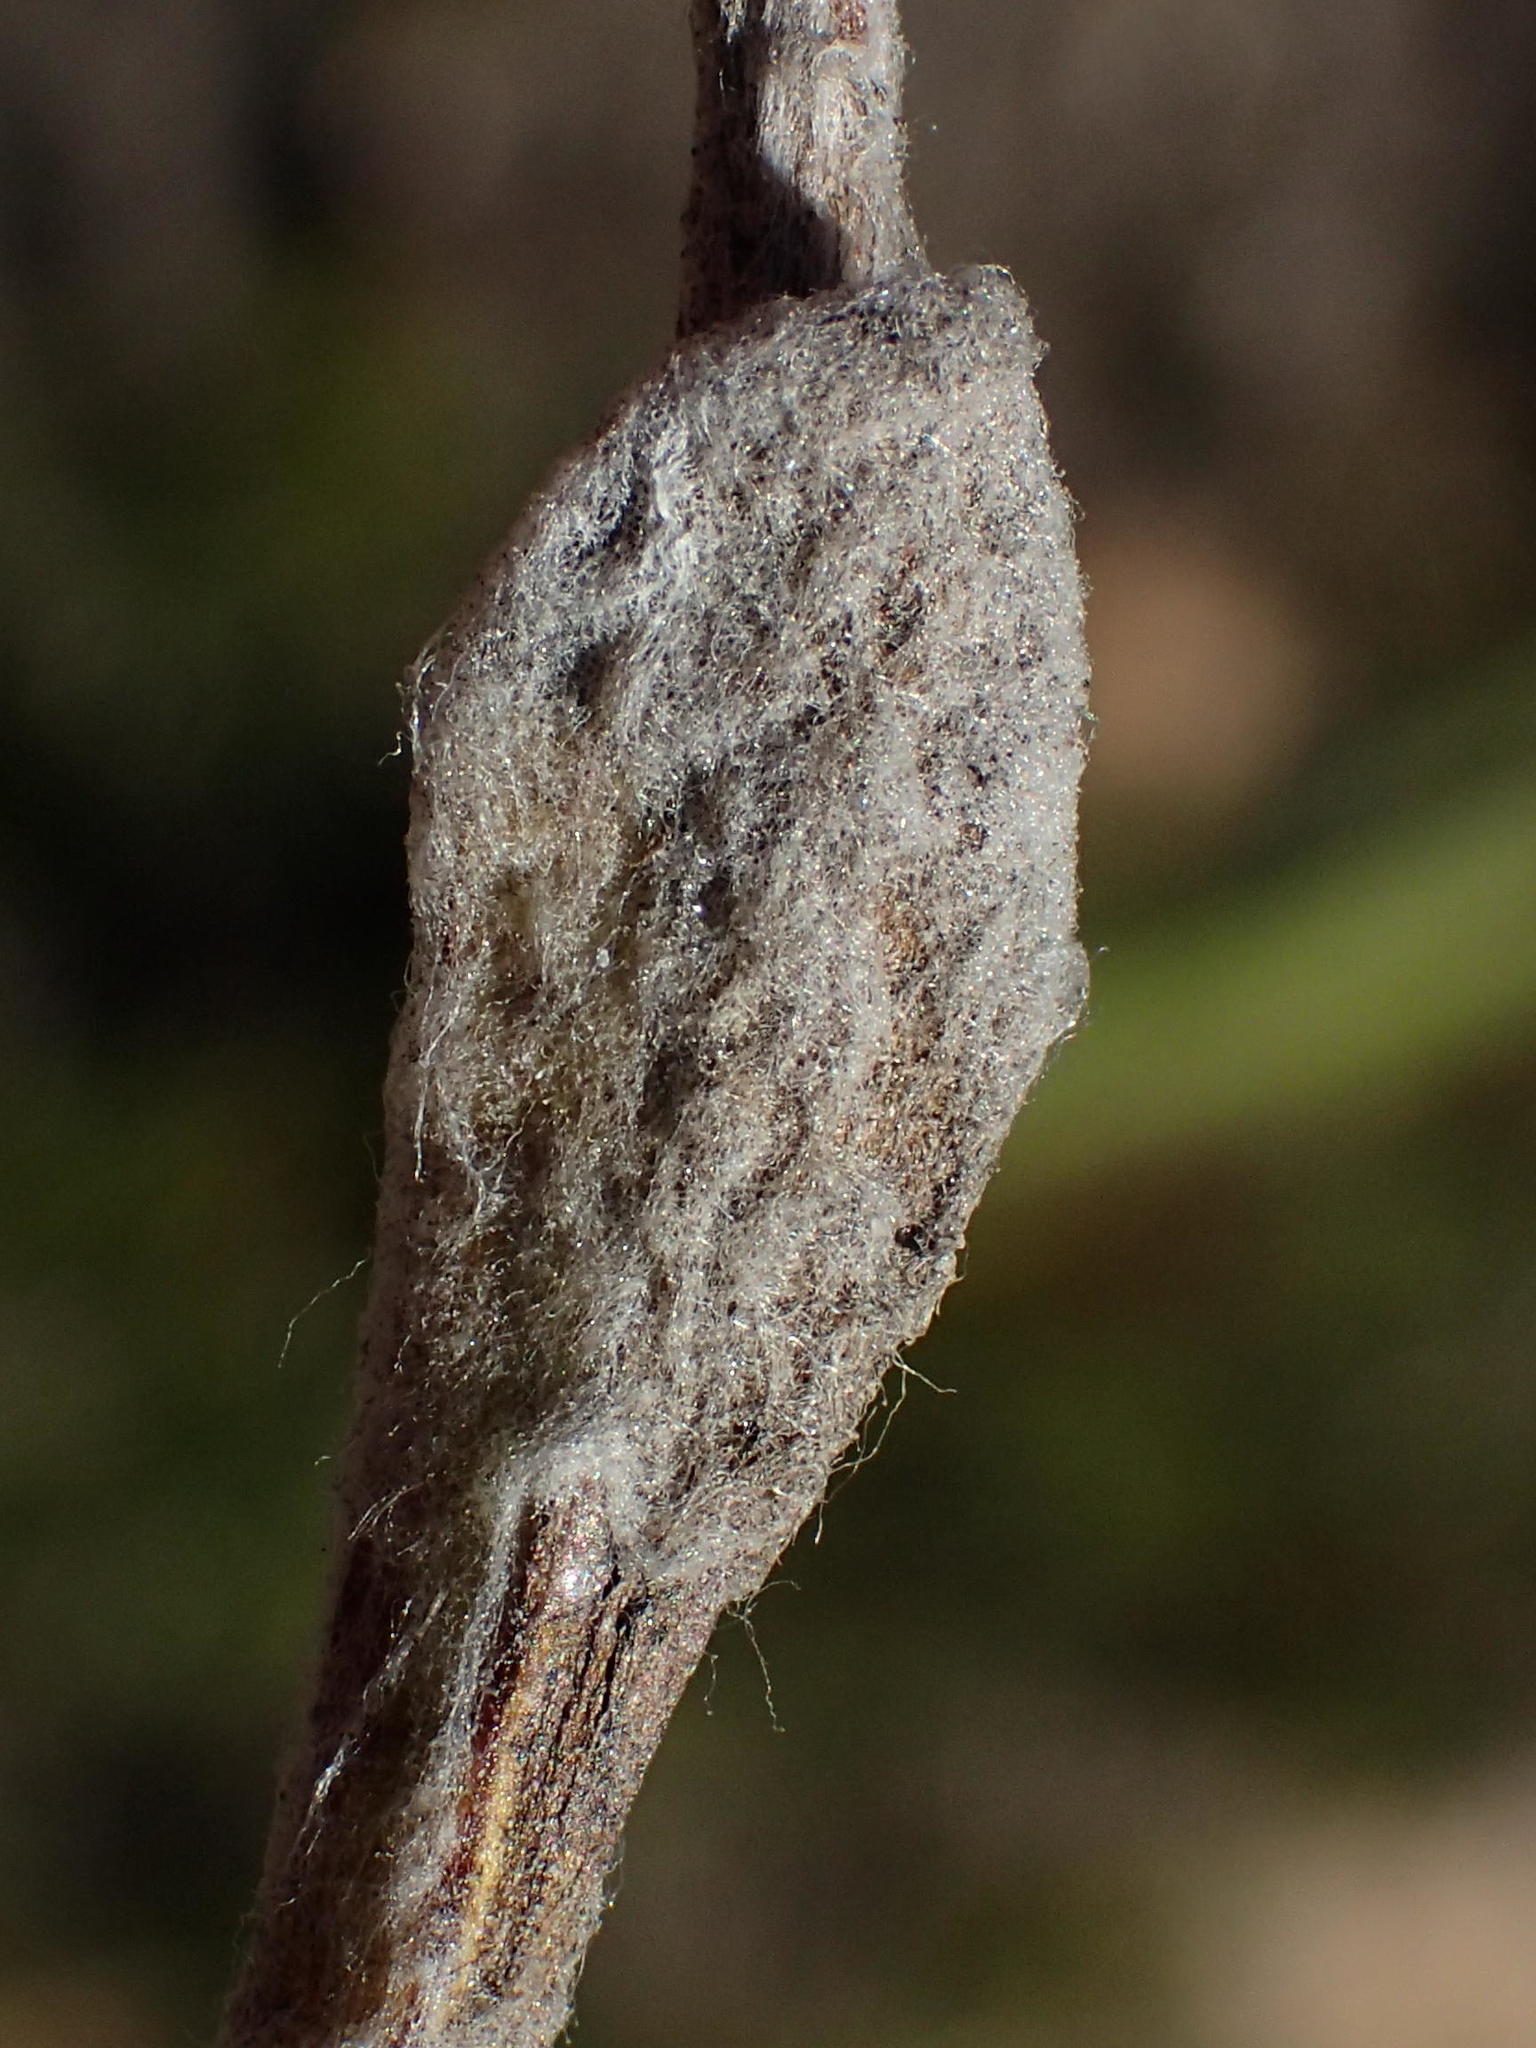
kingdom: Plantae
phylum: Tracheophyta
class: Magnoliopsida
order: Asterales
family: Asteraceae
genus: Helichrysum
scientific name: Helichrysum rotundifolium
